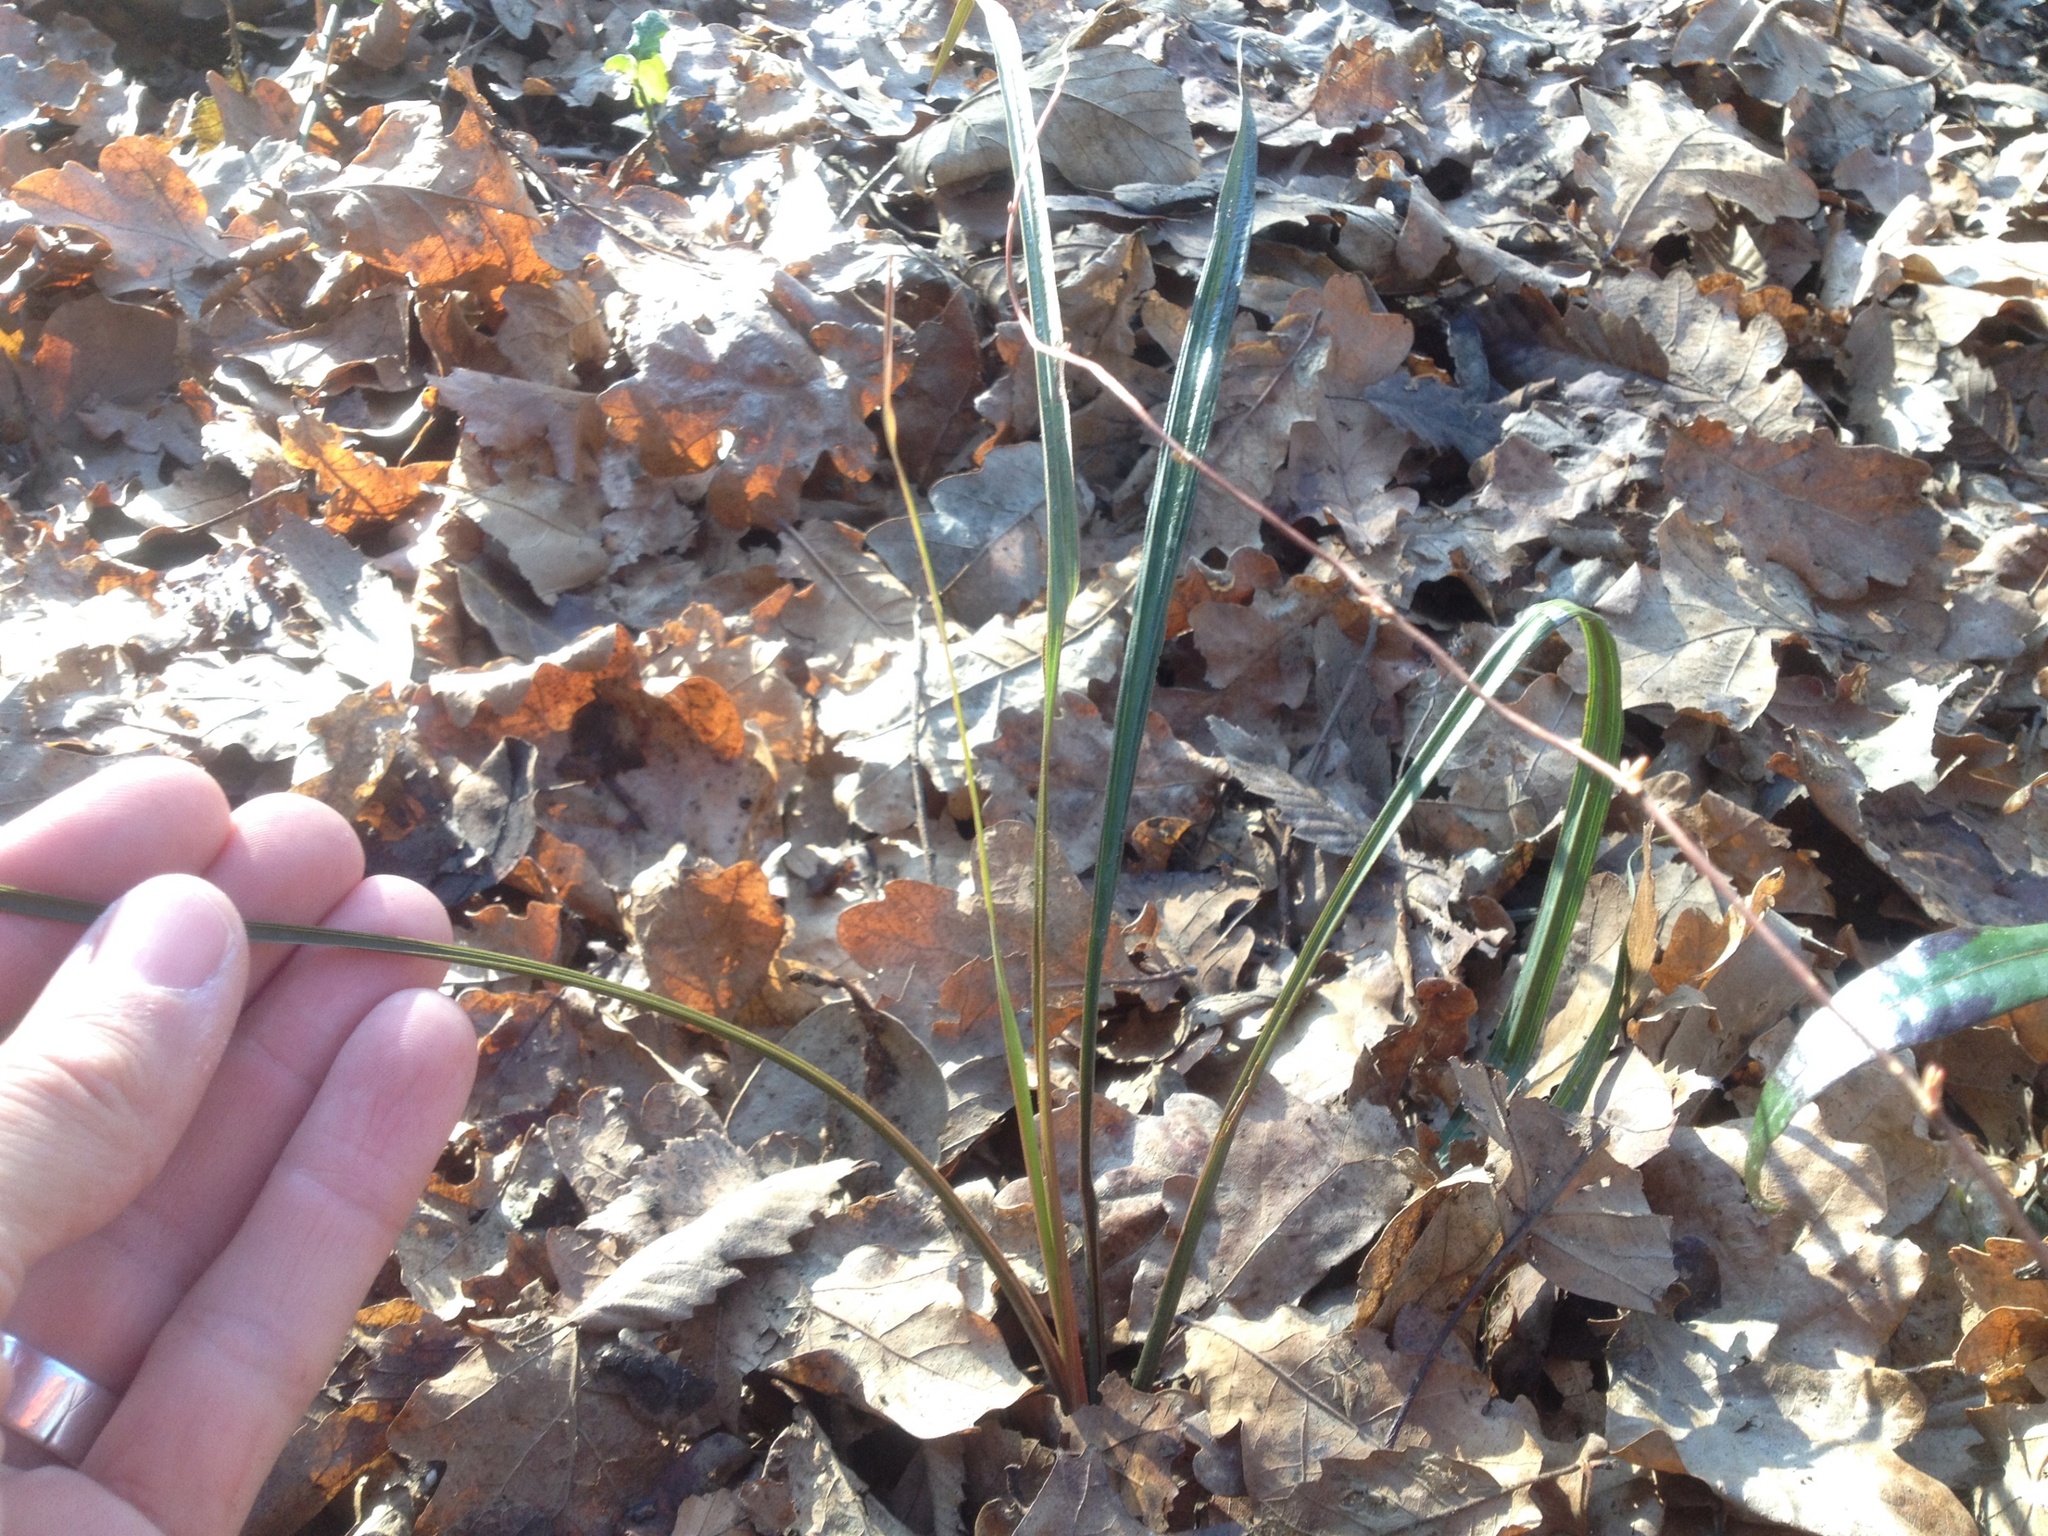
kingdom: Plantae
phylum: Tracheophyta
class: Liliopsida
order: Asparagales
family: Asparagaceae
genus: Cordyline
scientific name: Cordyline australis
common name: Cabbage-palm
